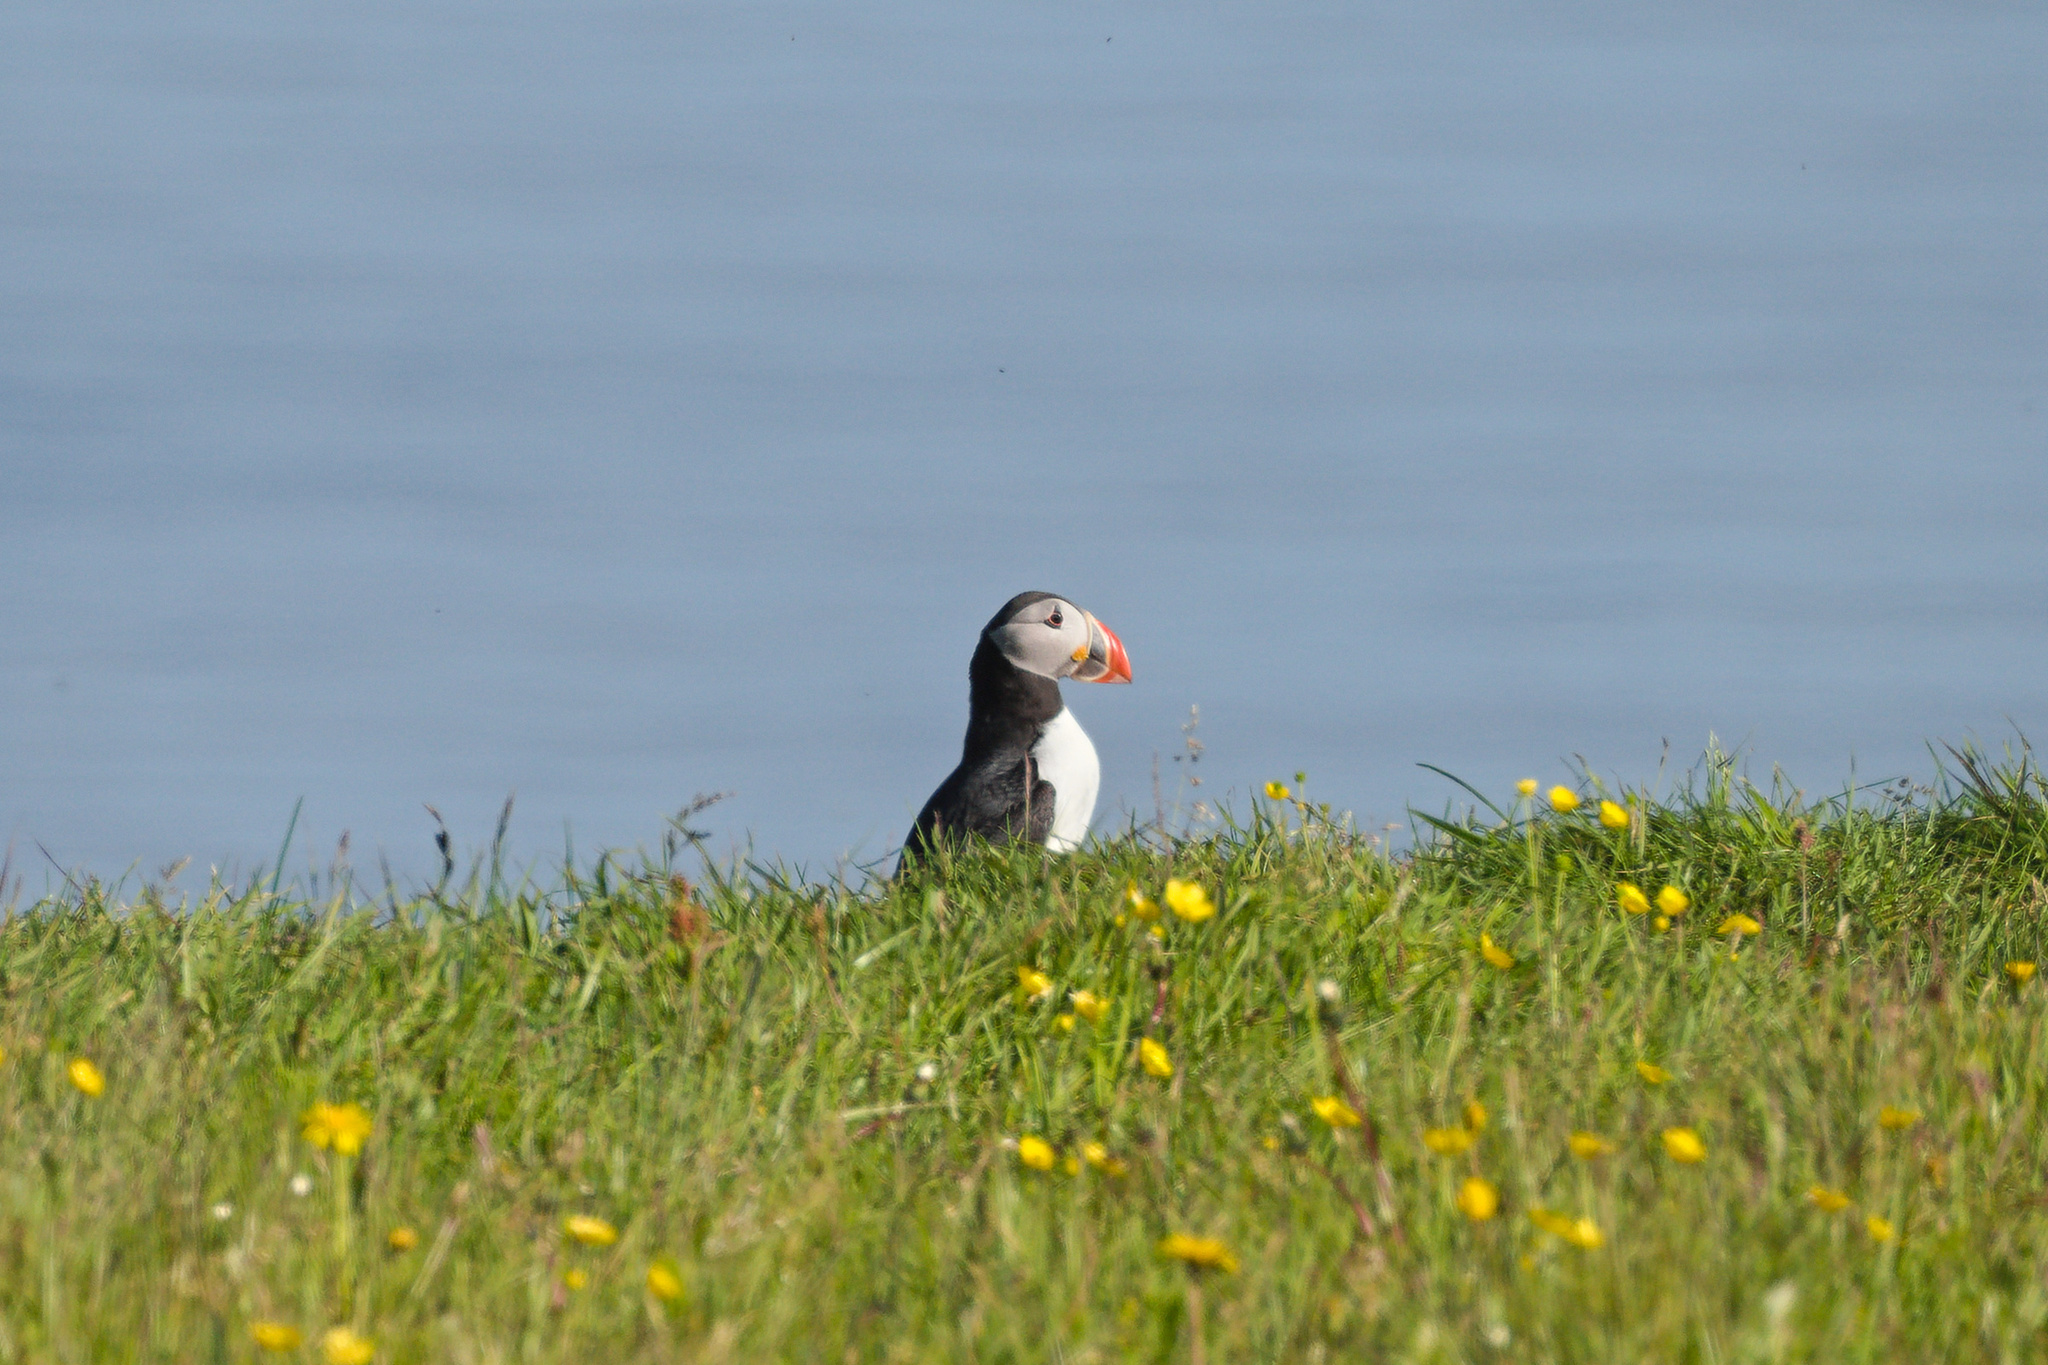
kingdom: Animalia
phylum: Chordata
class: Aves
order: Charadriiformes
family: Alcidae
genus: Fratercula
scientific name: Fratercula arctica
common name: Atlantic puffin
